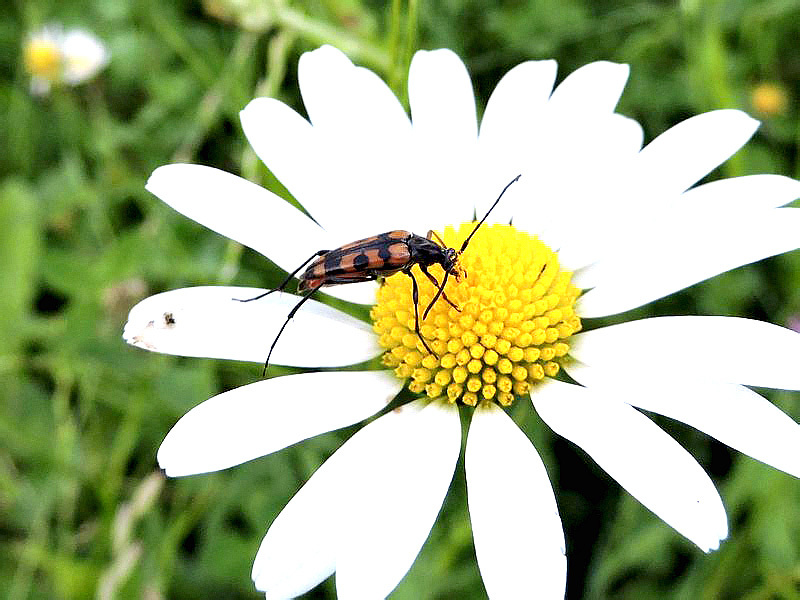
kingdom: Animalia
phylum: Arthropoda
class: Insecta
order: Coleoptera
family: Cerambycidae
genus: Stenurella
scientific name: Stenurella septempunctata
